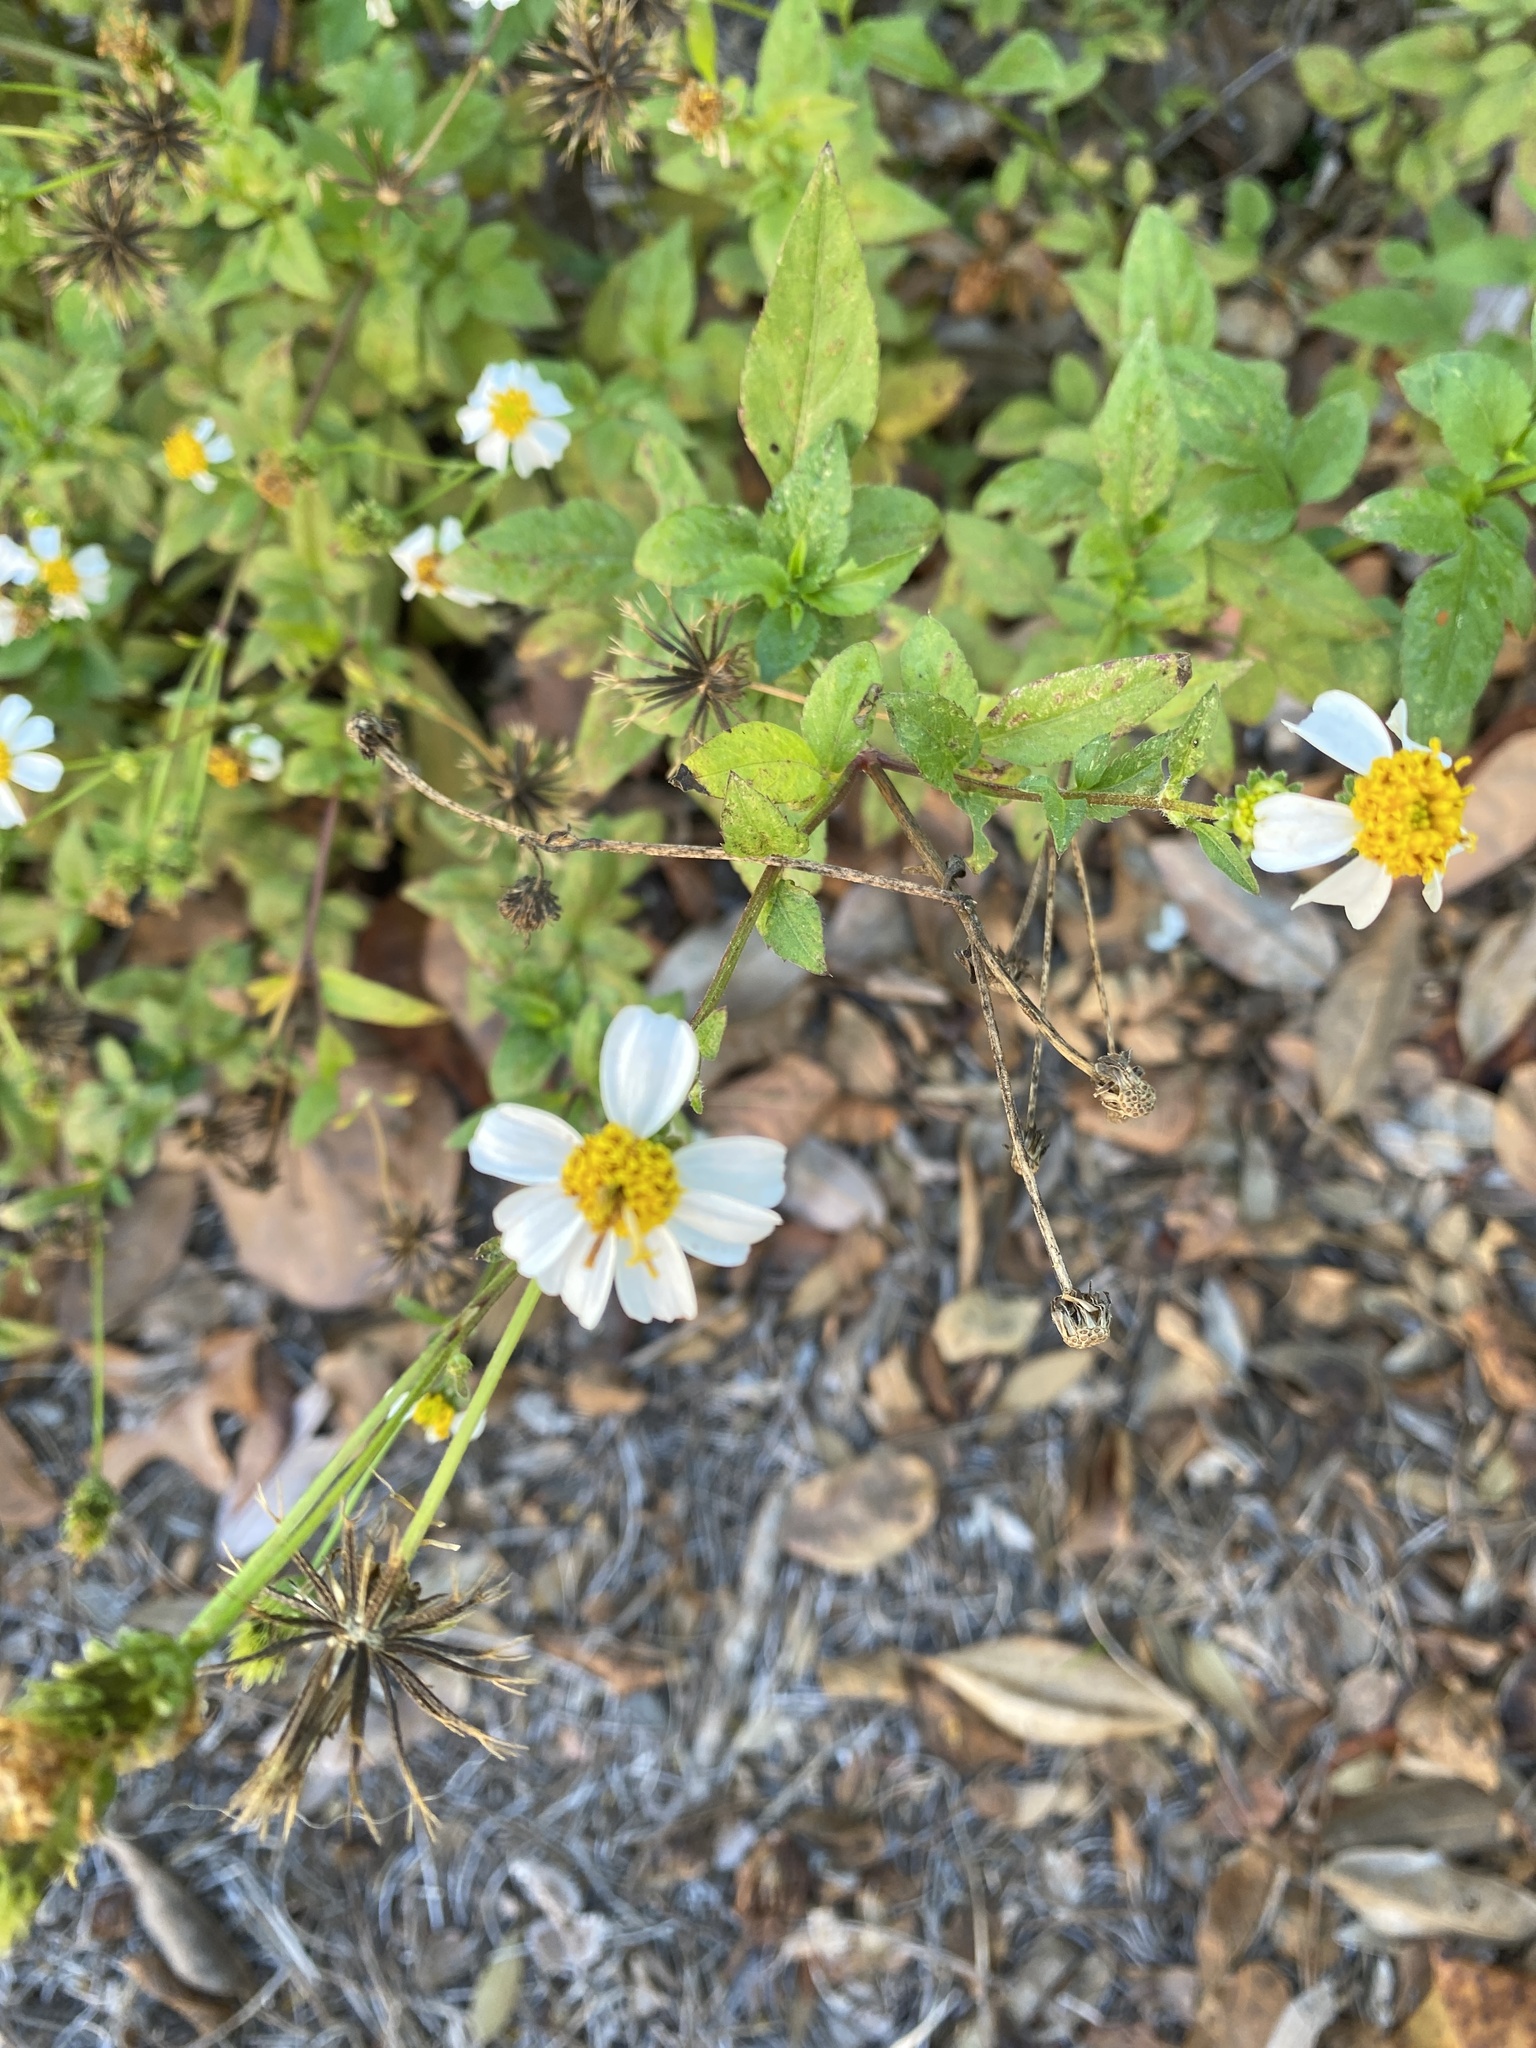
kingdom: Plantae
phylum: Tracheophyta
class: Magnoliopsida
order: Asterales
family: Asteraceae
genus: Bidens
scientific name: Bidens alba
